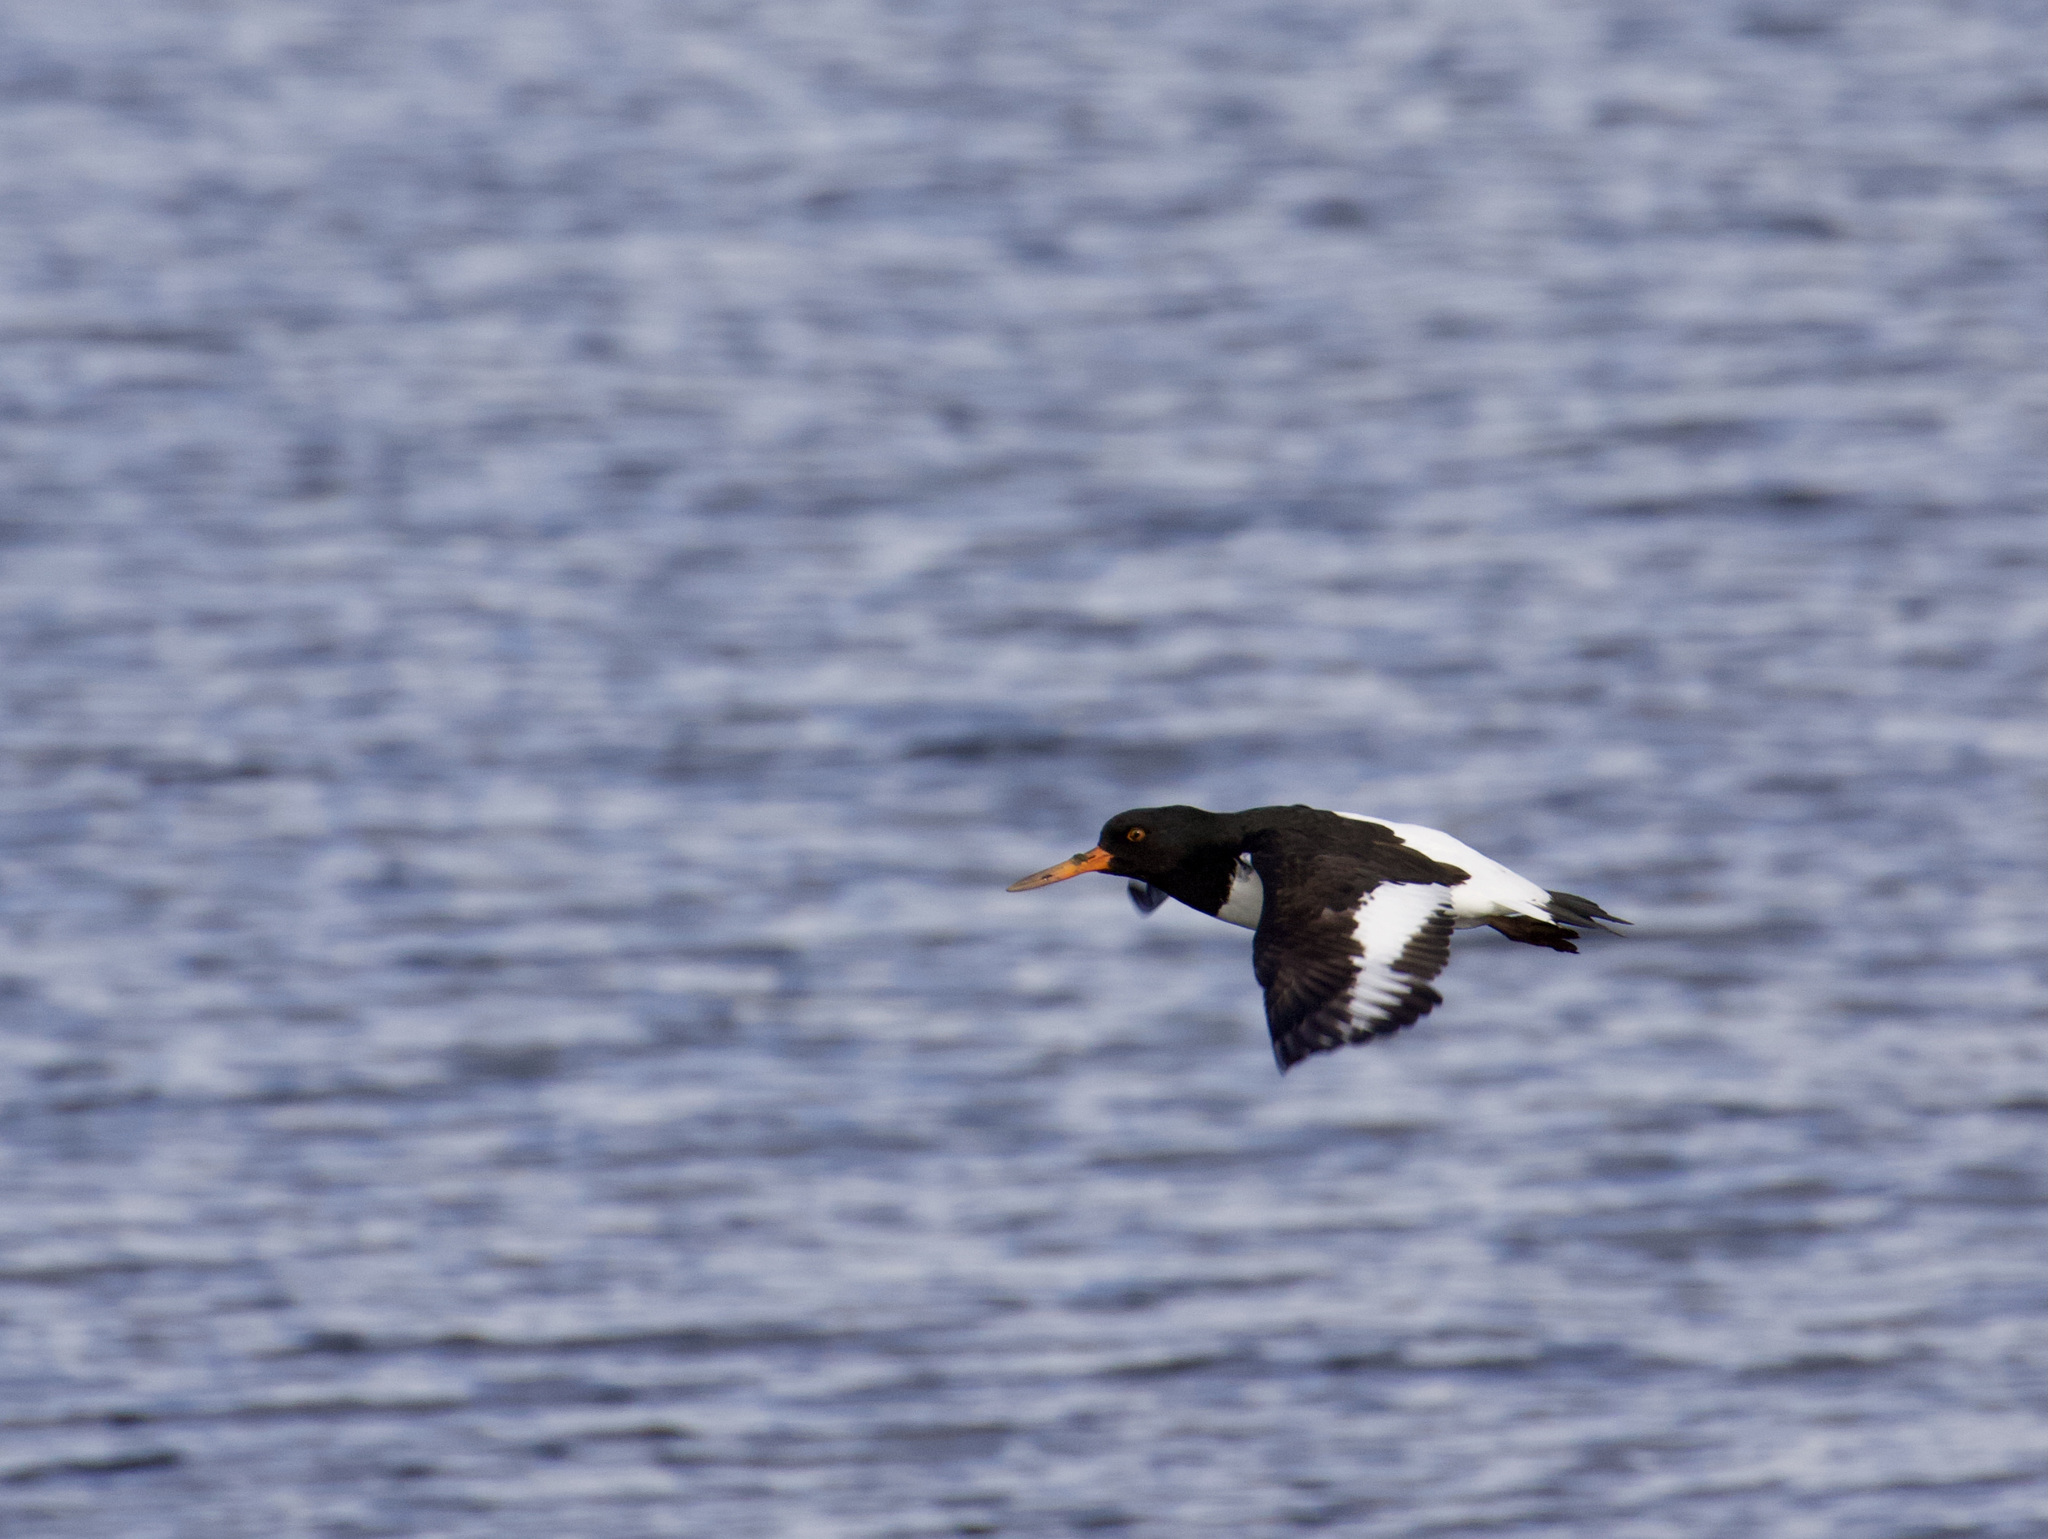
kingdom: Animalia
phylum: Chordata
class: Aves
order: Charadriiformes
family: Haematopodidae
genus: Haematopus
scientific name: Haematopus ostralegus
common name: Eurasian oystercatcher
